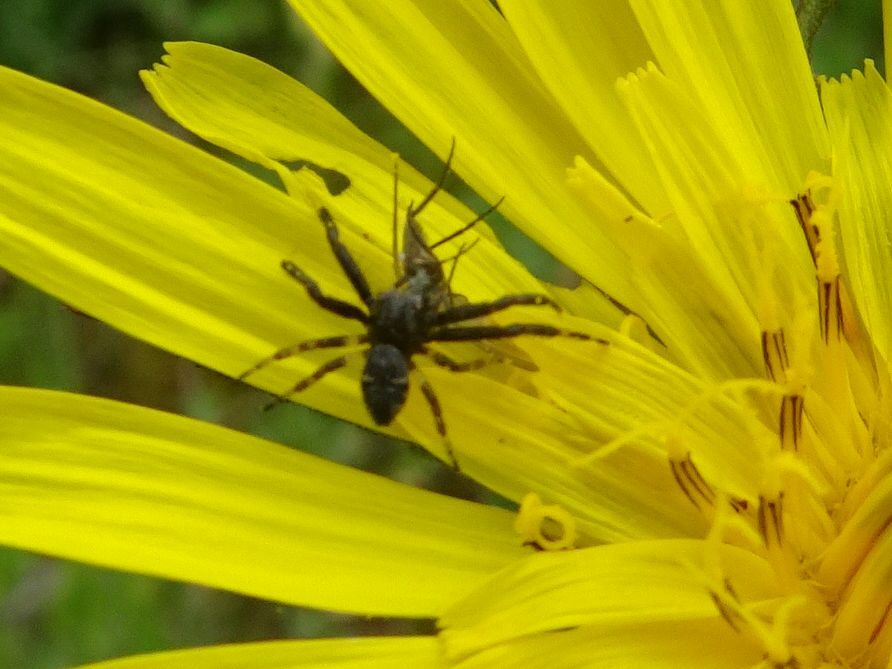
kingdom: Animalia
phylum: Arthropoda
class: Arachnida
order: Araneae
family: Thomisidae
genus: Synema
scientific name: Synema globosum
